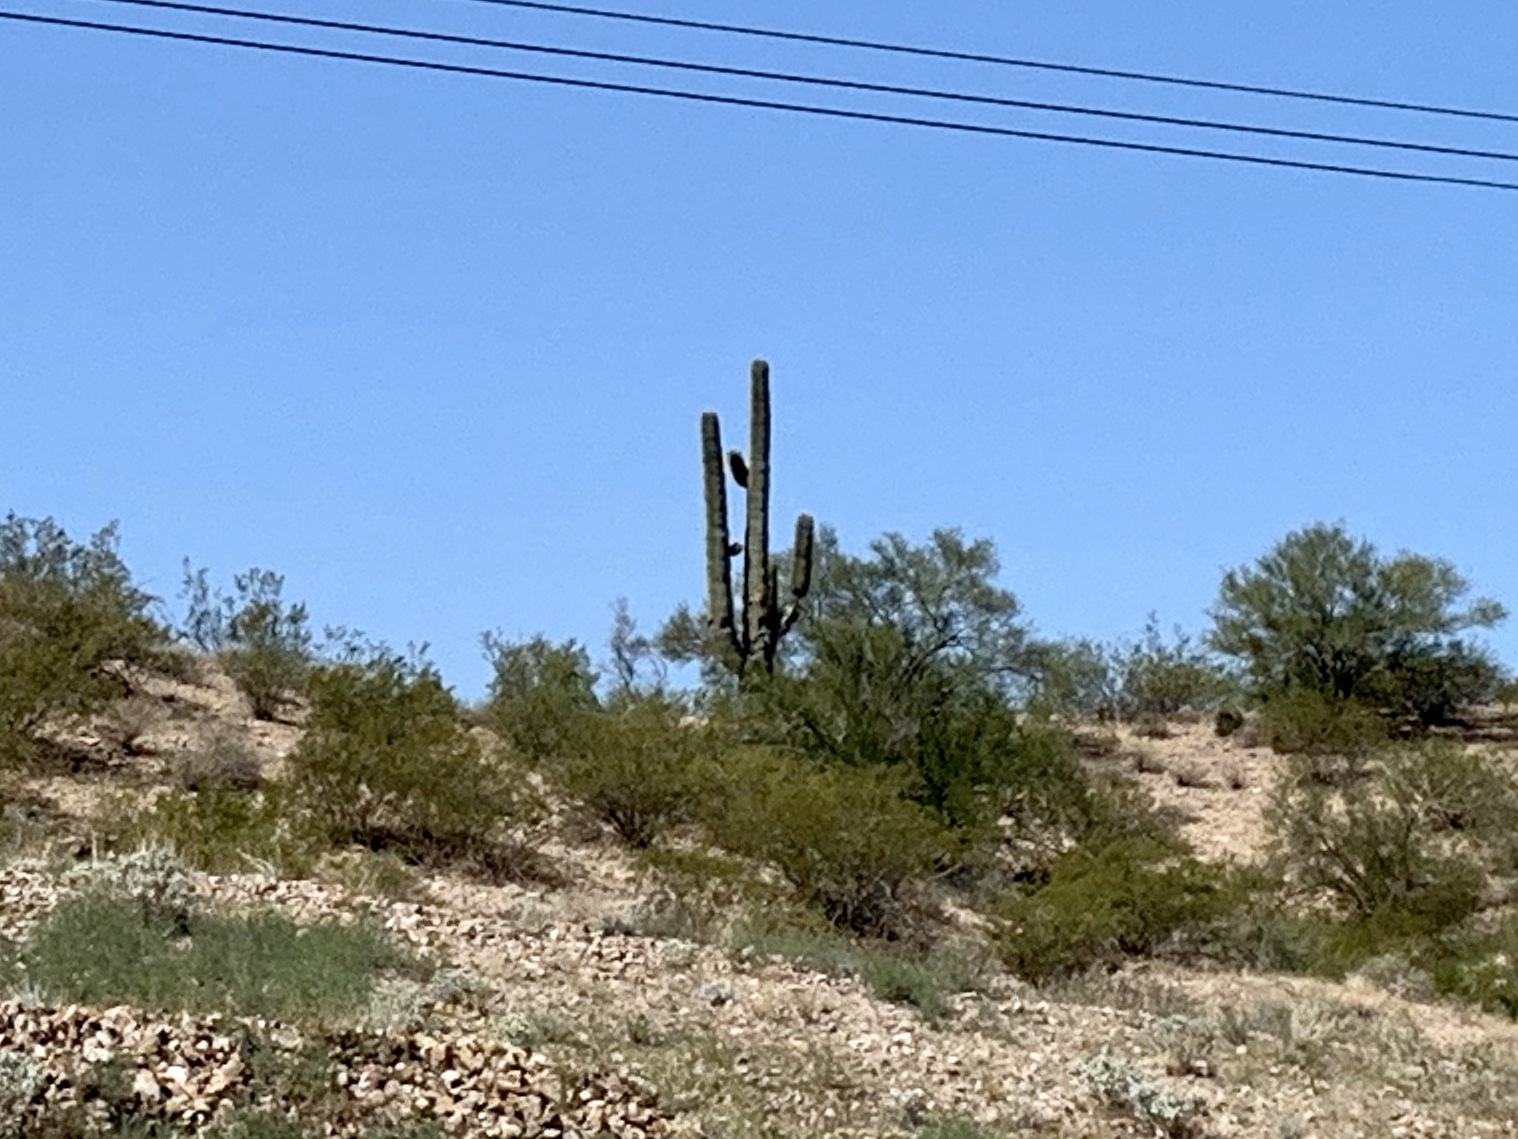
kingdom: Plantae
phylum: Tracheophyta
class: Magnoliopsida
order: Caryophyllales
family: Cactaceae
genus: Carnegiea
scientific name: Carnegiea gigantea
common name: Saguaro
